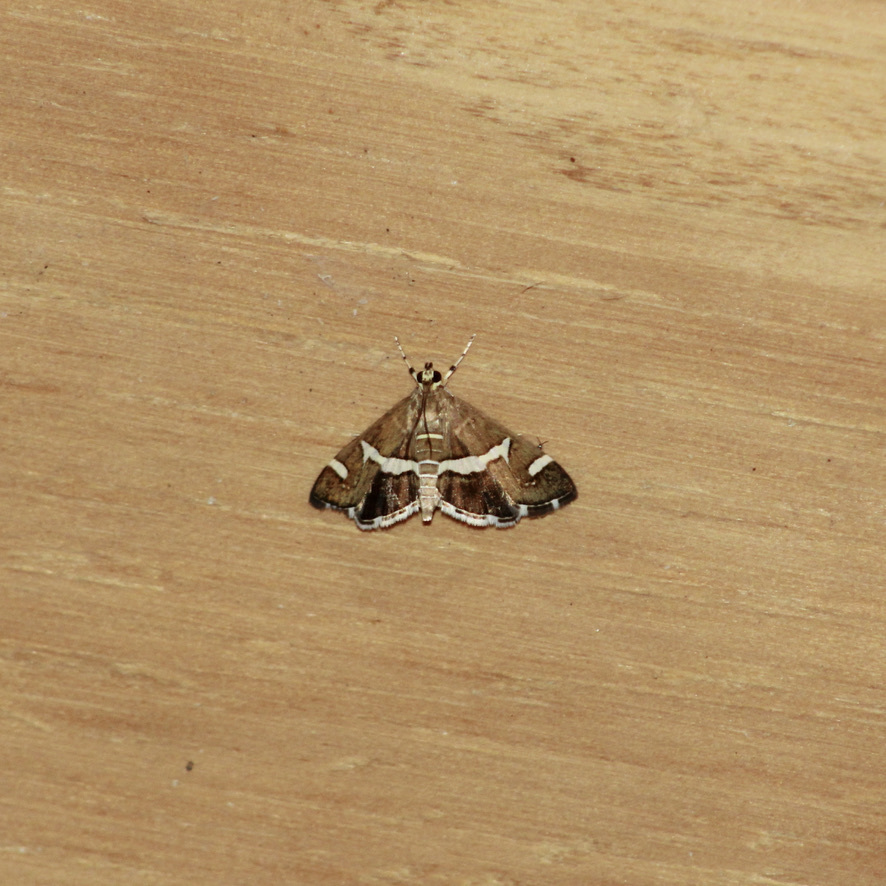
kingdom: Animalia
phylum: Arthropoda
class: Insecta
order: Lepidoptera
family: Crambidae
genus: Spoladea
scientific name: Spoladea recurvalis
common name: Beet webworm moth
